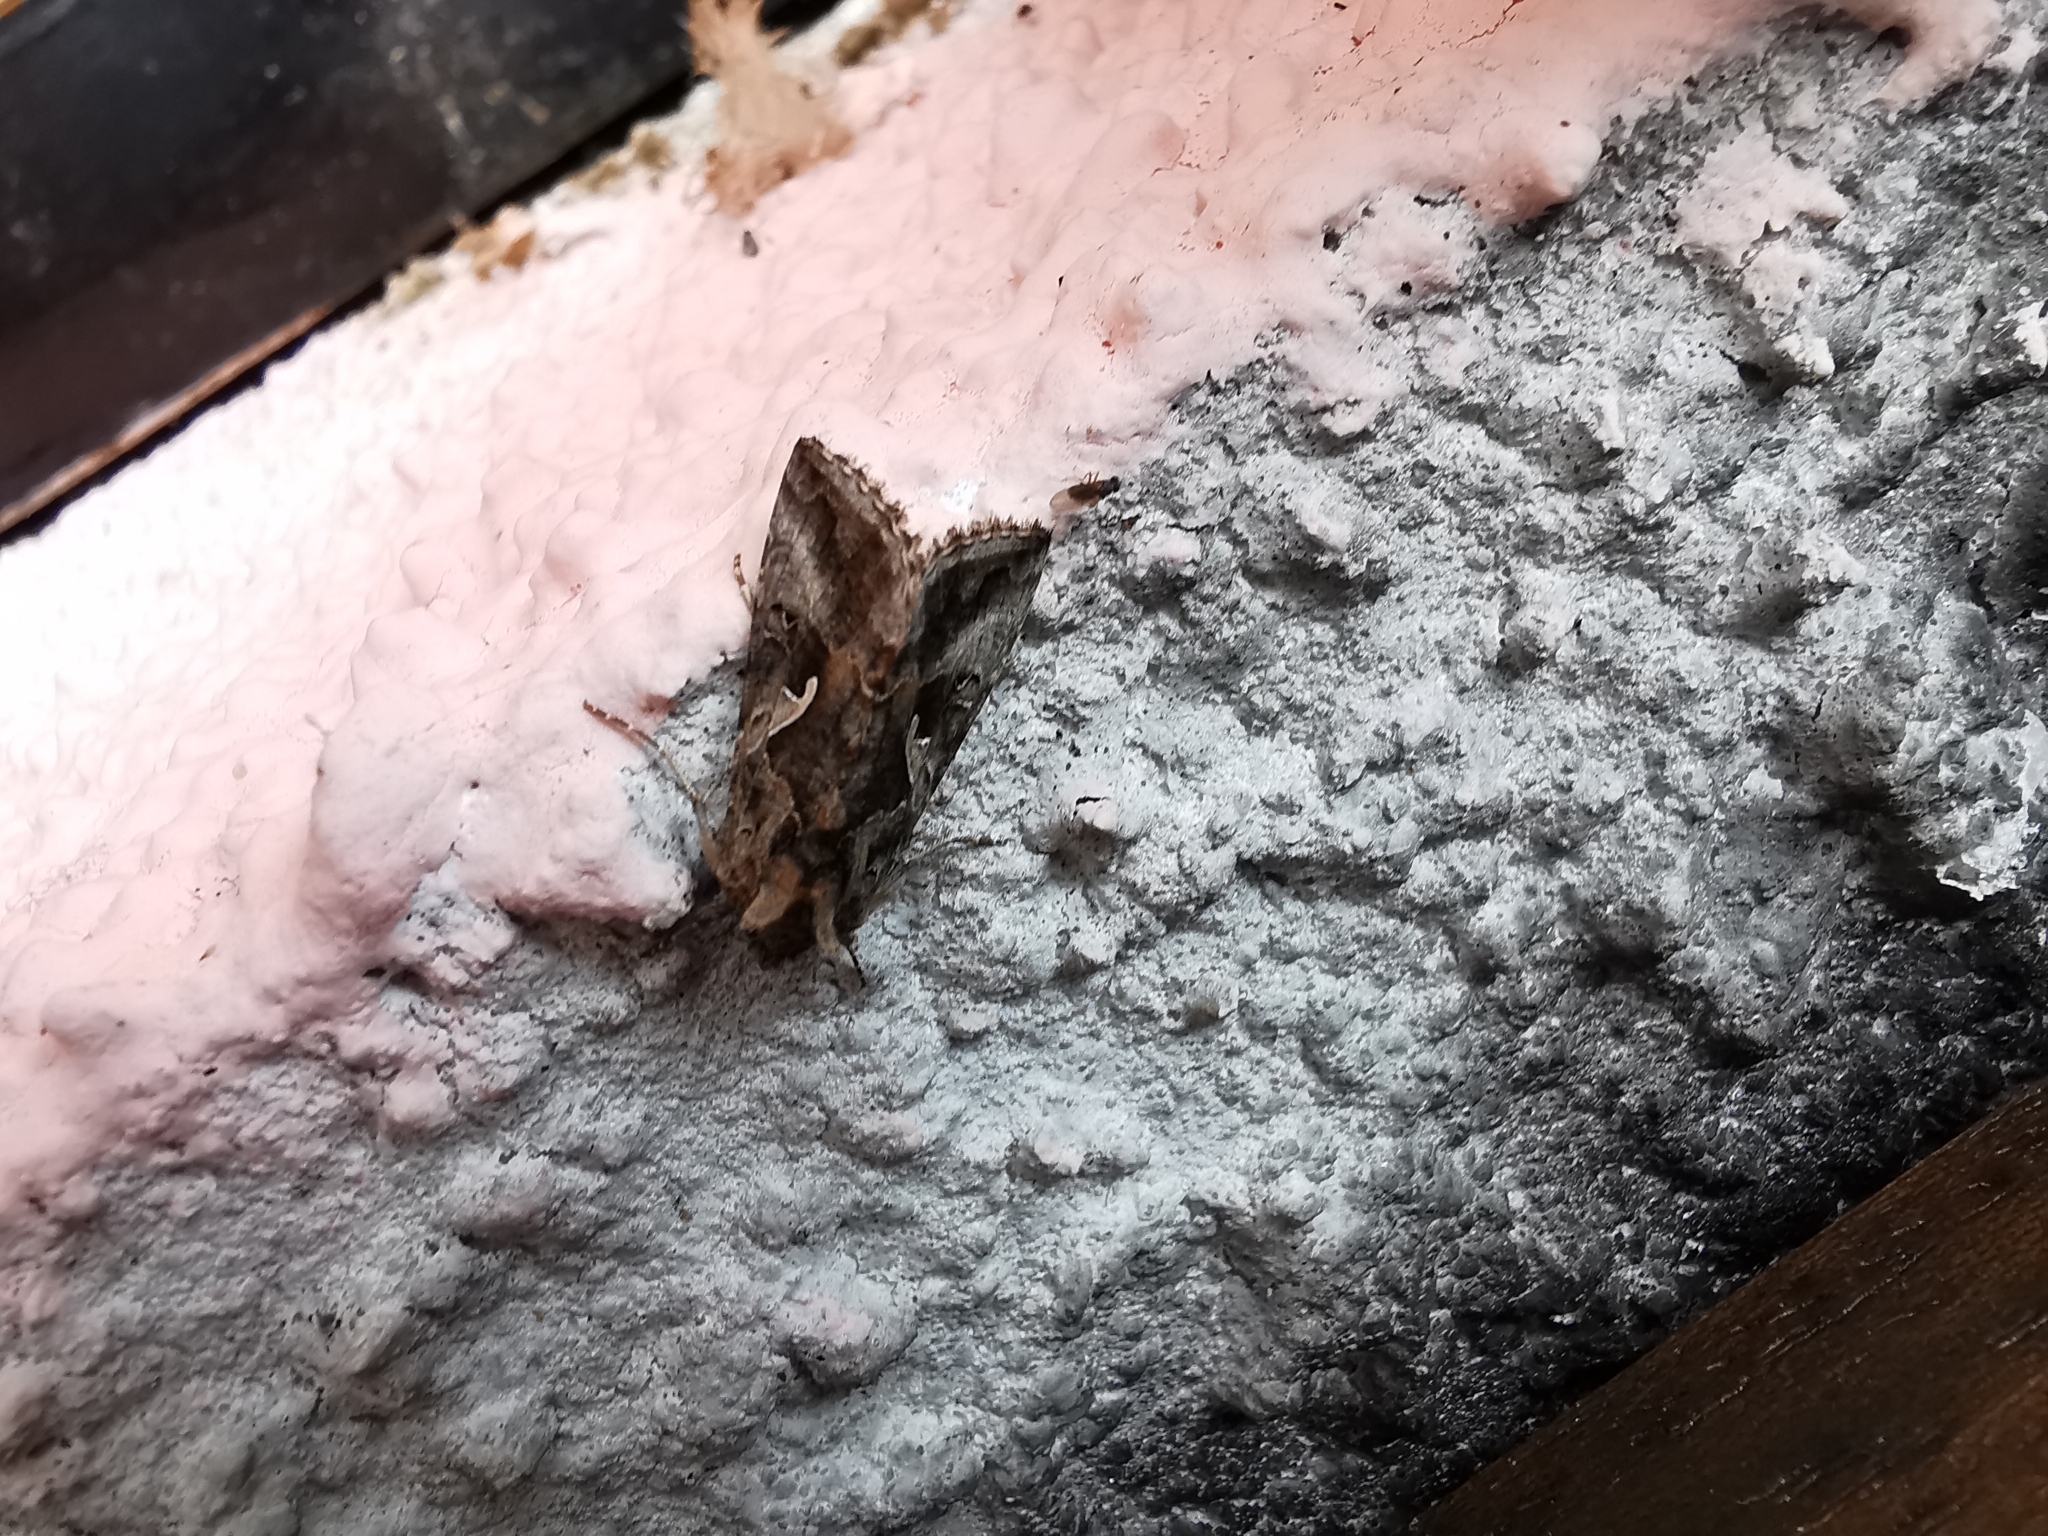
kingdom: Animalia
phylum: Arthropoda
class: Insecta
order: Lepidoptera
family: Noctuidae
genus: Autographa
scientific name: Autographa gamma
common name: Silver y
